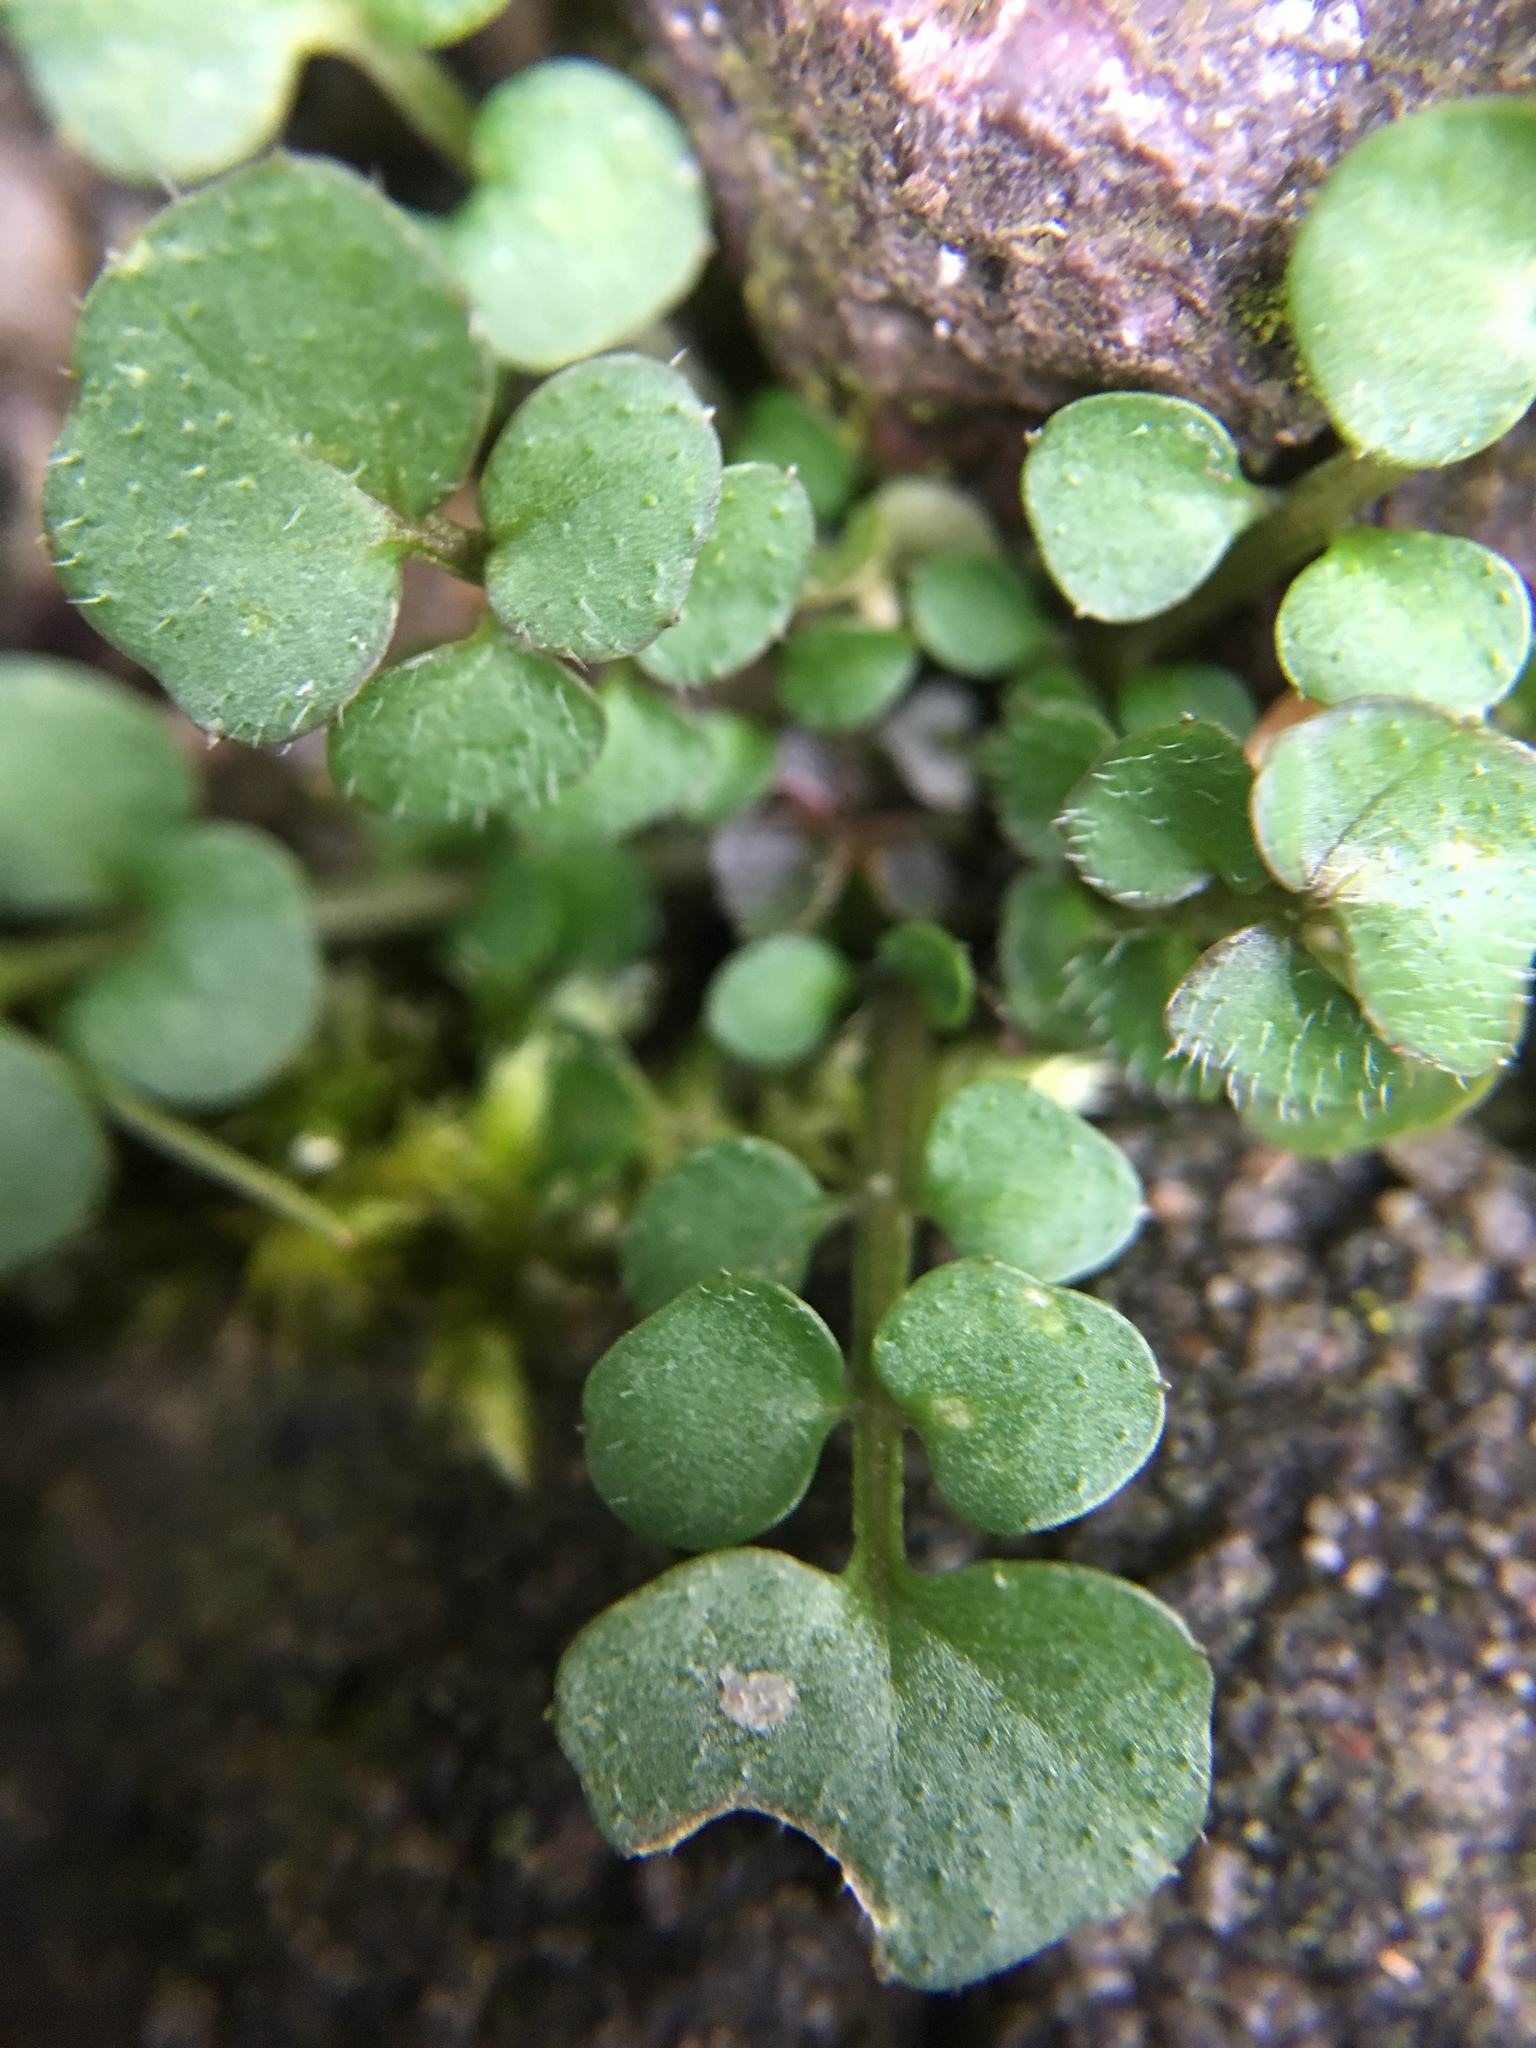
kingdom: Plantae
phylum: Tracheophyta
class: Magnoliopsida
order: Brassicales
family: Brassicaceae
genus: Cardamine
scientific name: Cardamine hirsuta
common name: Hairy bittercress
